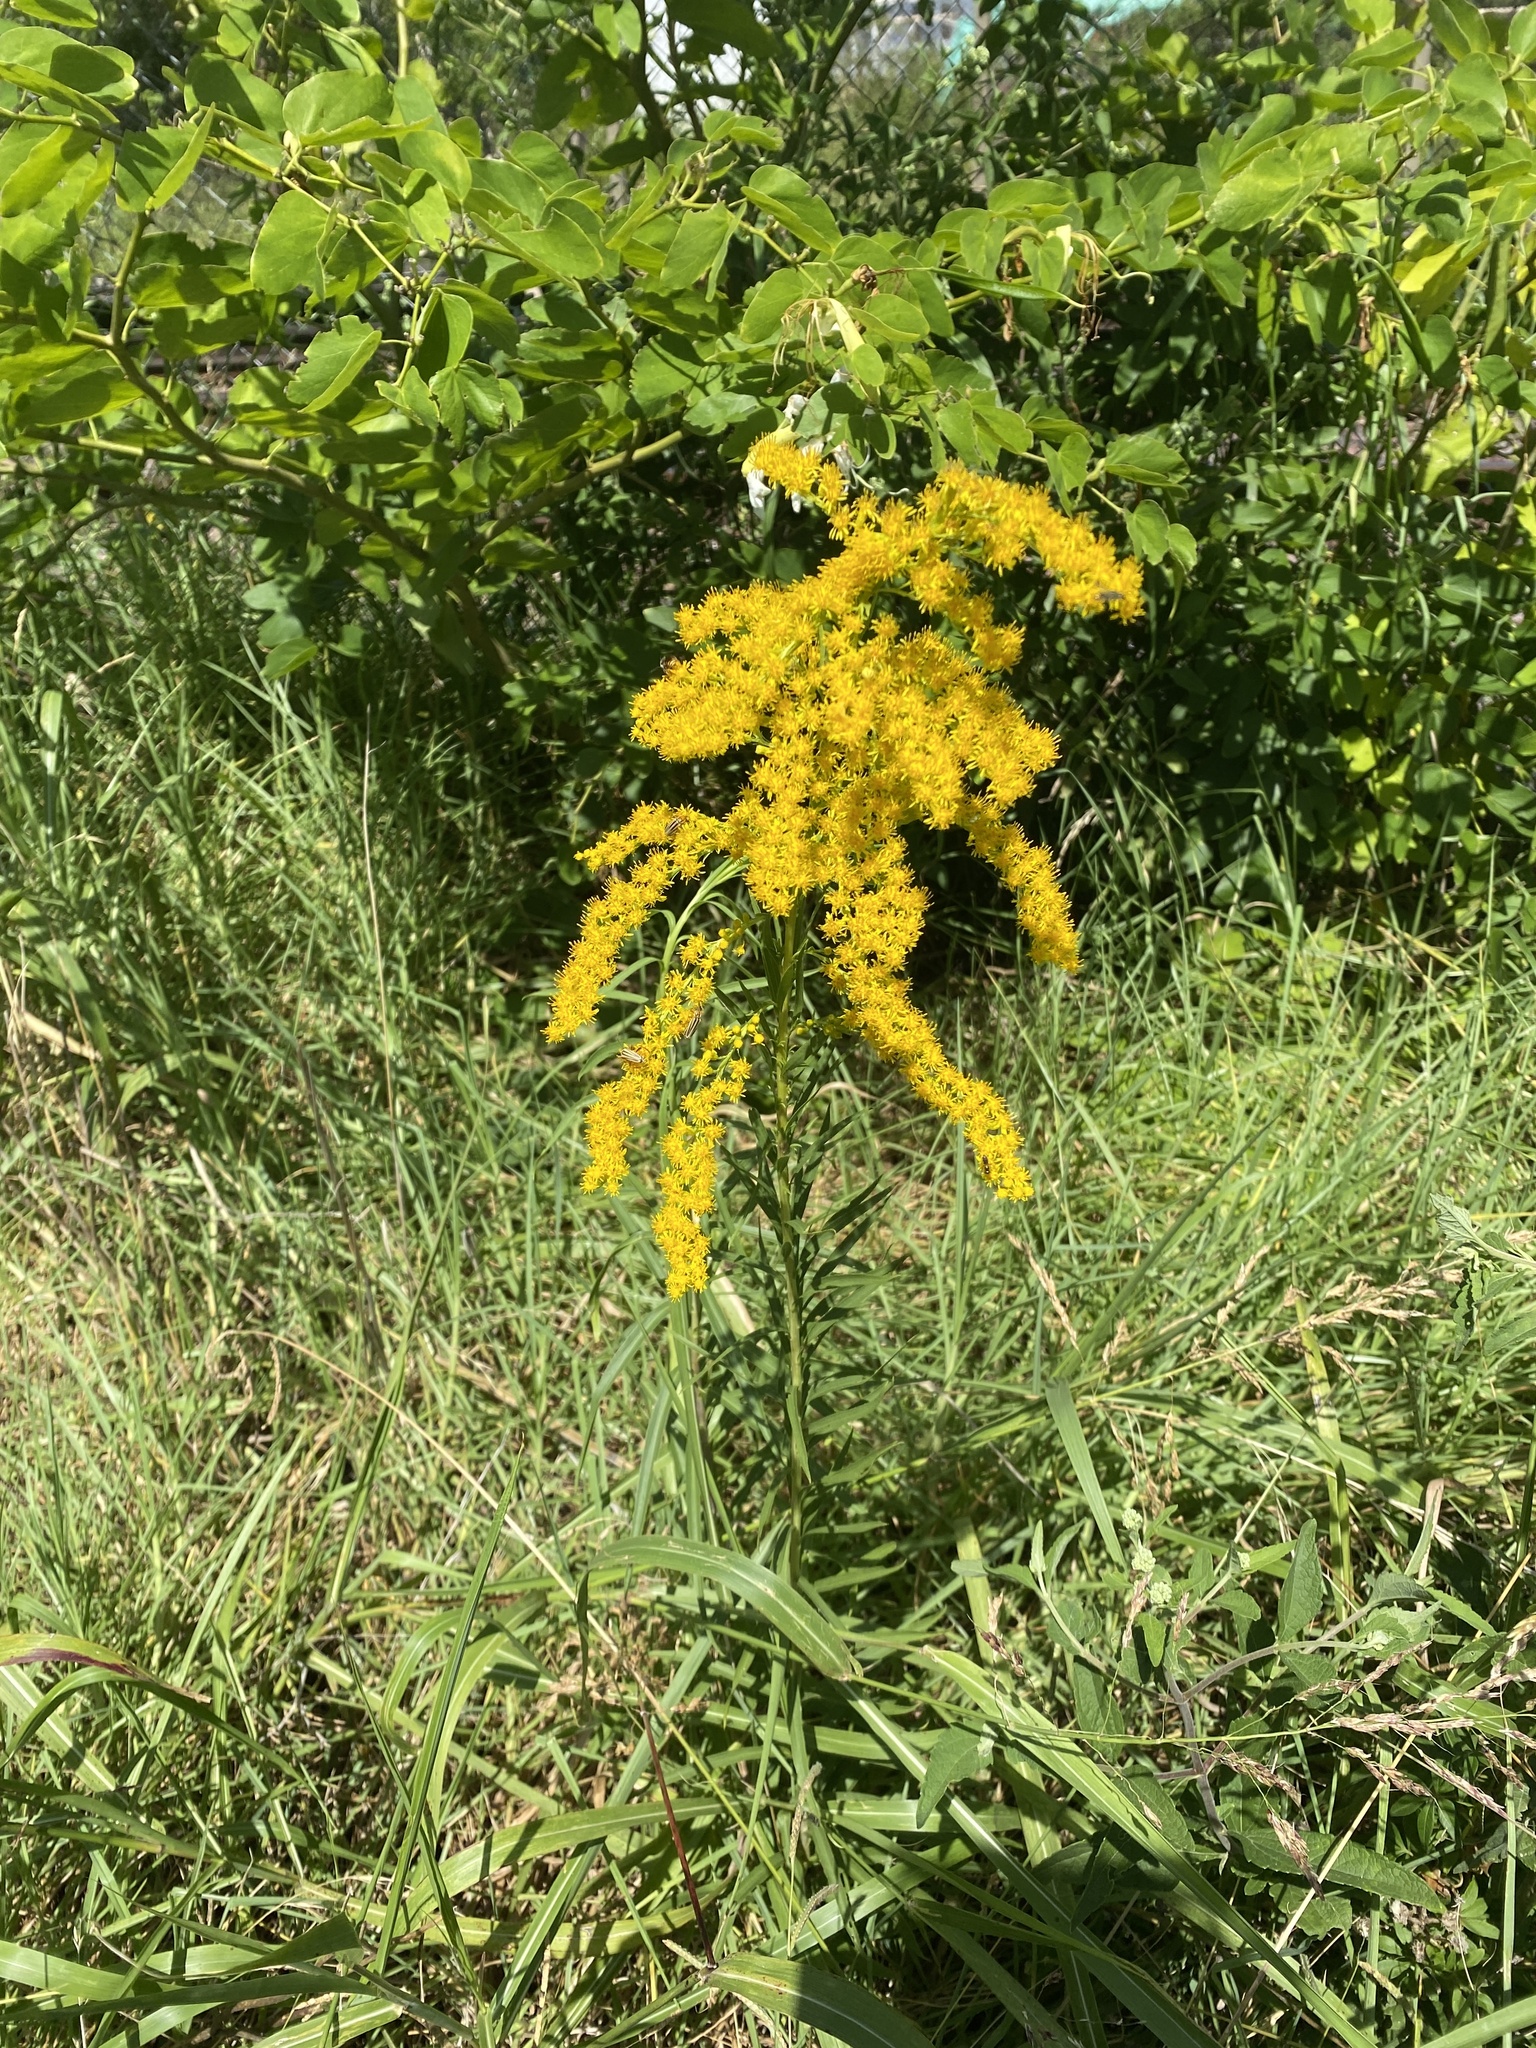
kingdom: Plantae
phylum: Tracheophyta
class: Magnoliopsida
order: Asterales
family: Asteraceae
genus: Solidago
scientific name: Solidago chilensis
